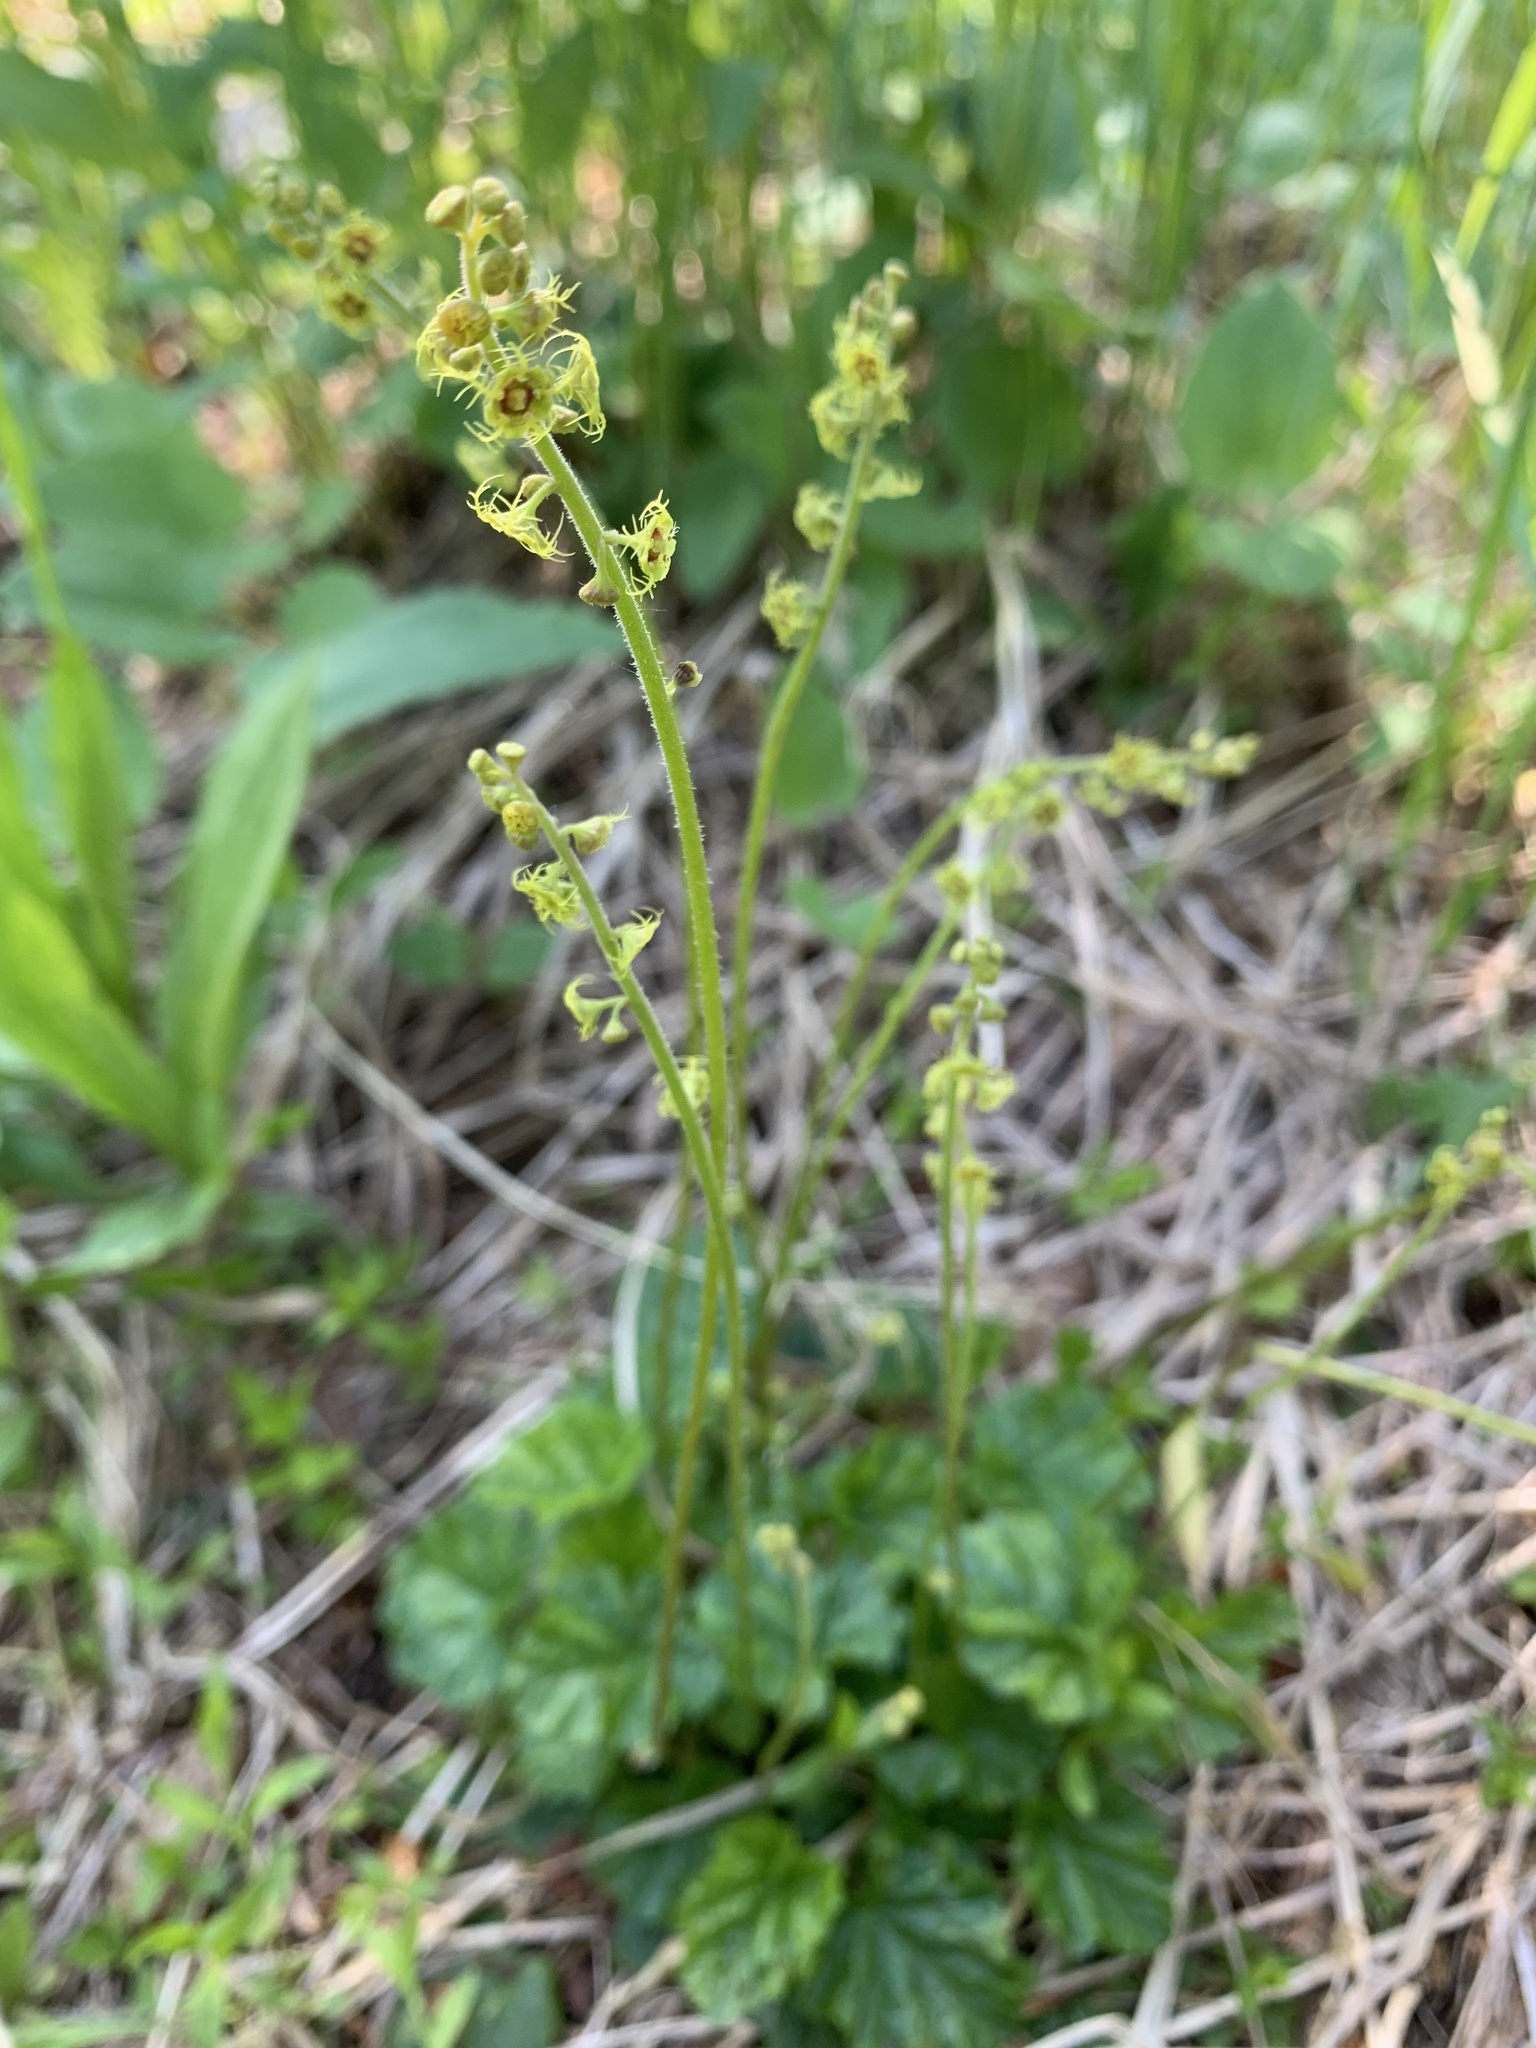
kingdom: Plantae
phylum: Tracheophyta
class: Magnoliopsida
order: Saxifragales
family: Saxifragaceae
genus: Pectiantia
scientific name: Pectiantia pentandra
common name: Alpine bishop's-cap
